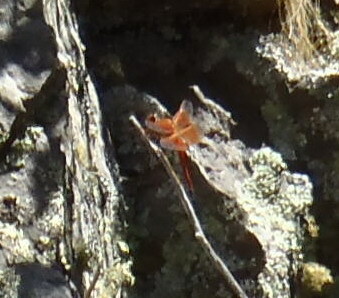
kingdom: Animalia
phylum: Arthropoda
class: Insecta
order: Odonata
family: Libellulidae
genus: Libellula
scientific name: Libellula saturata
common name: Flame skimmer
